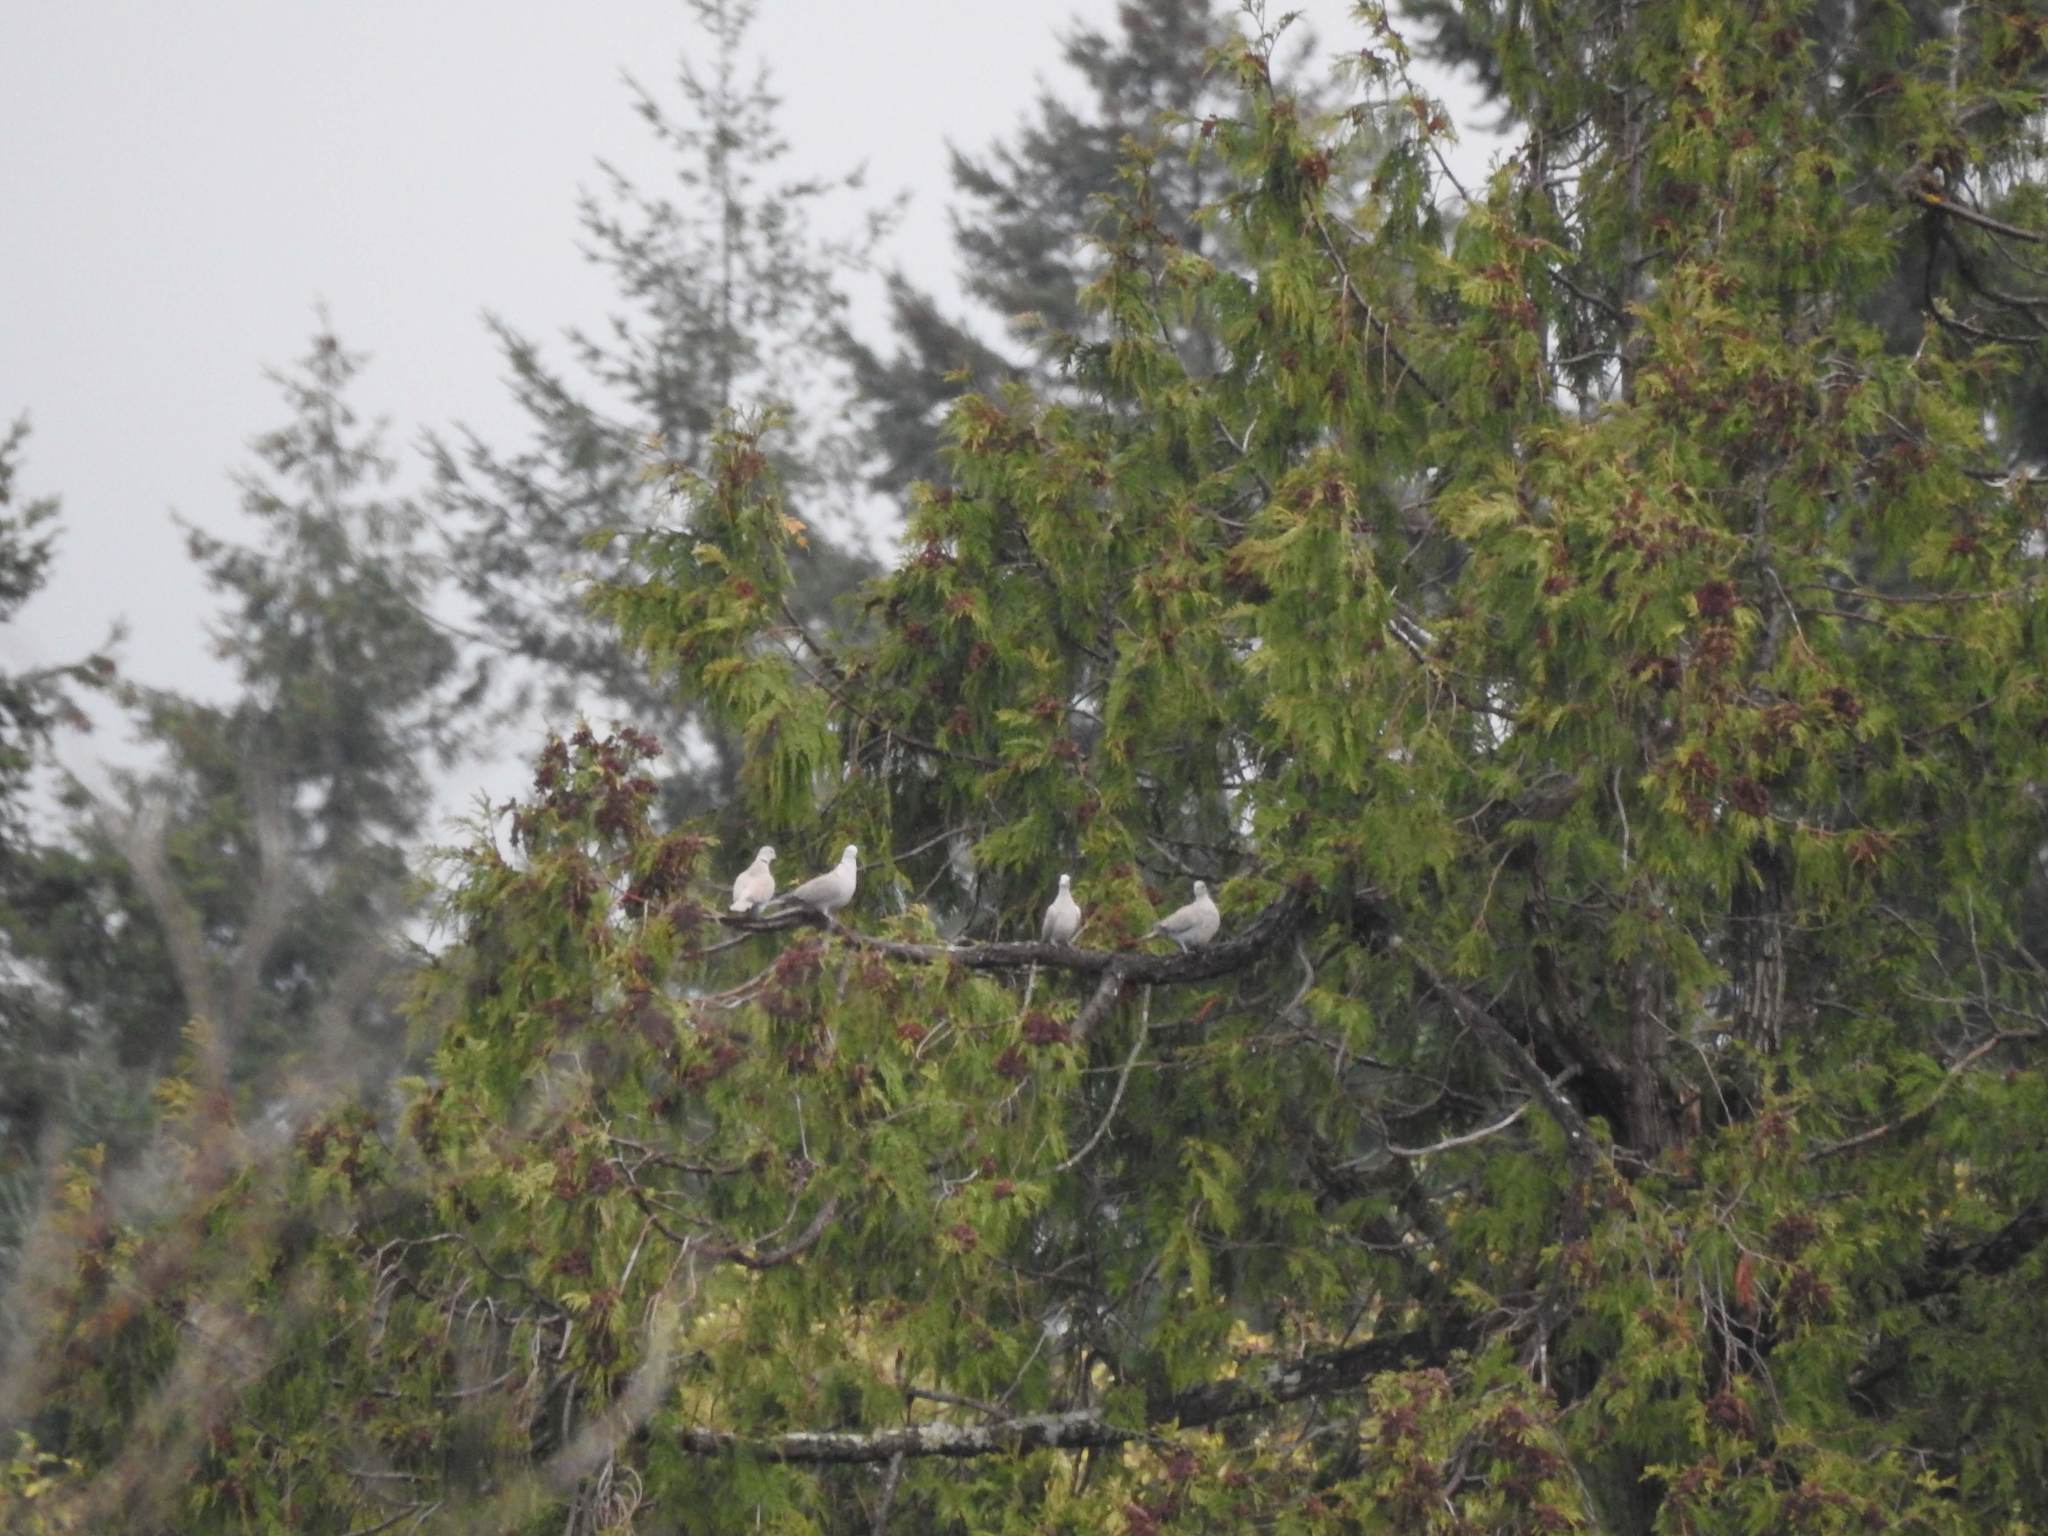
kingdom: Animalia
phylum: Chordata
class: Aves
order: Columbiformes
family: Columbidae
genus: Streptopelia
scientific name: Streptopelia decaocto
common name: Eurasian collared dove
